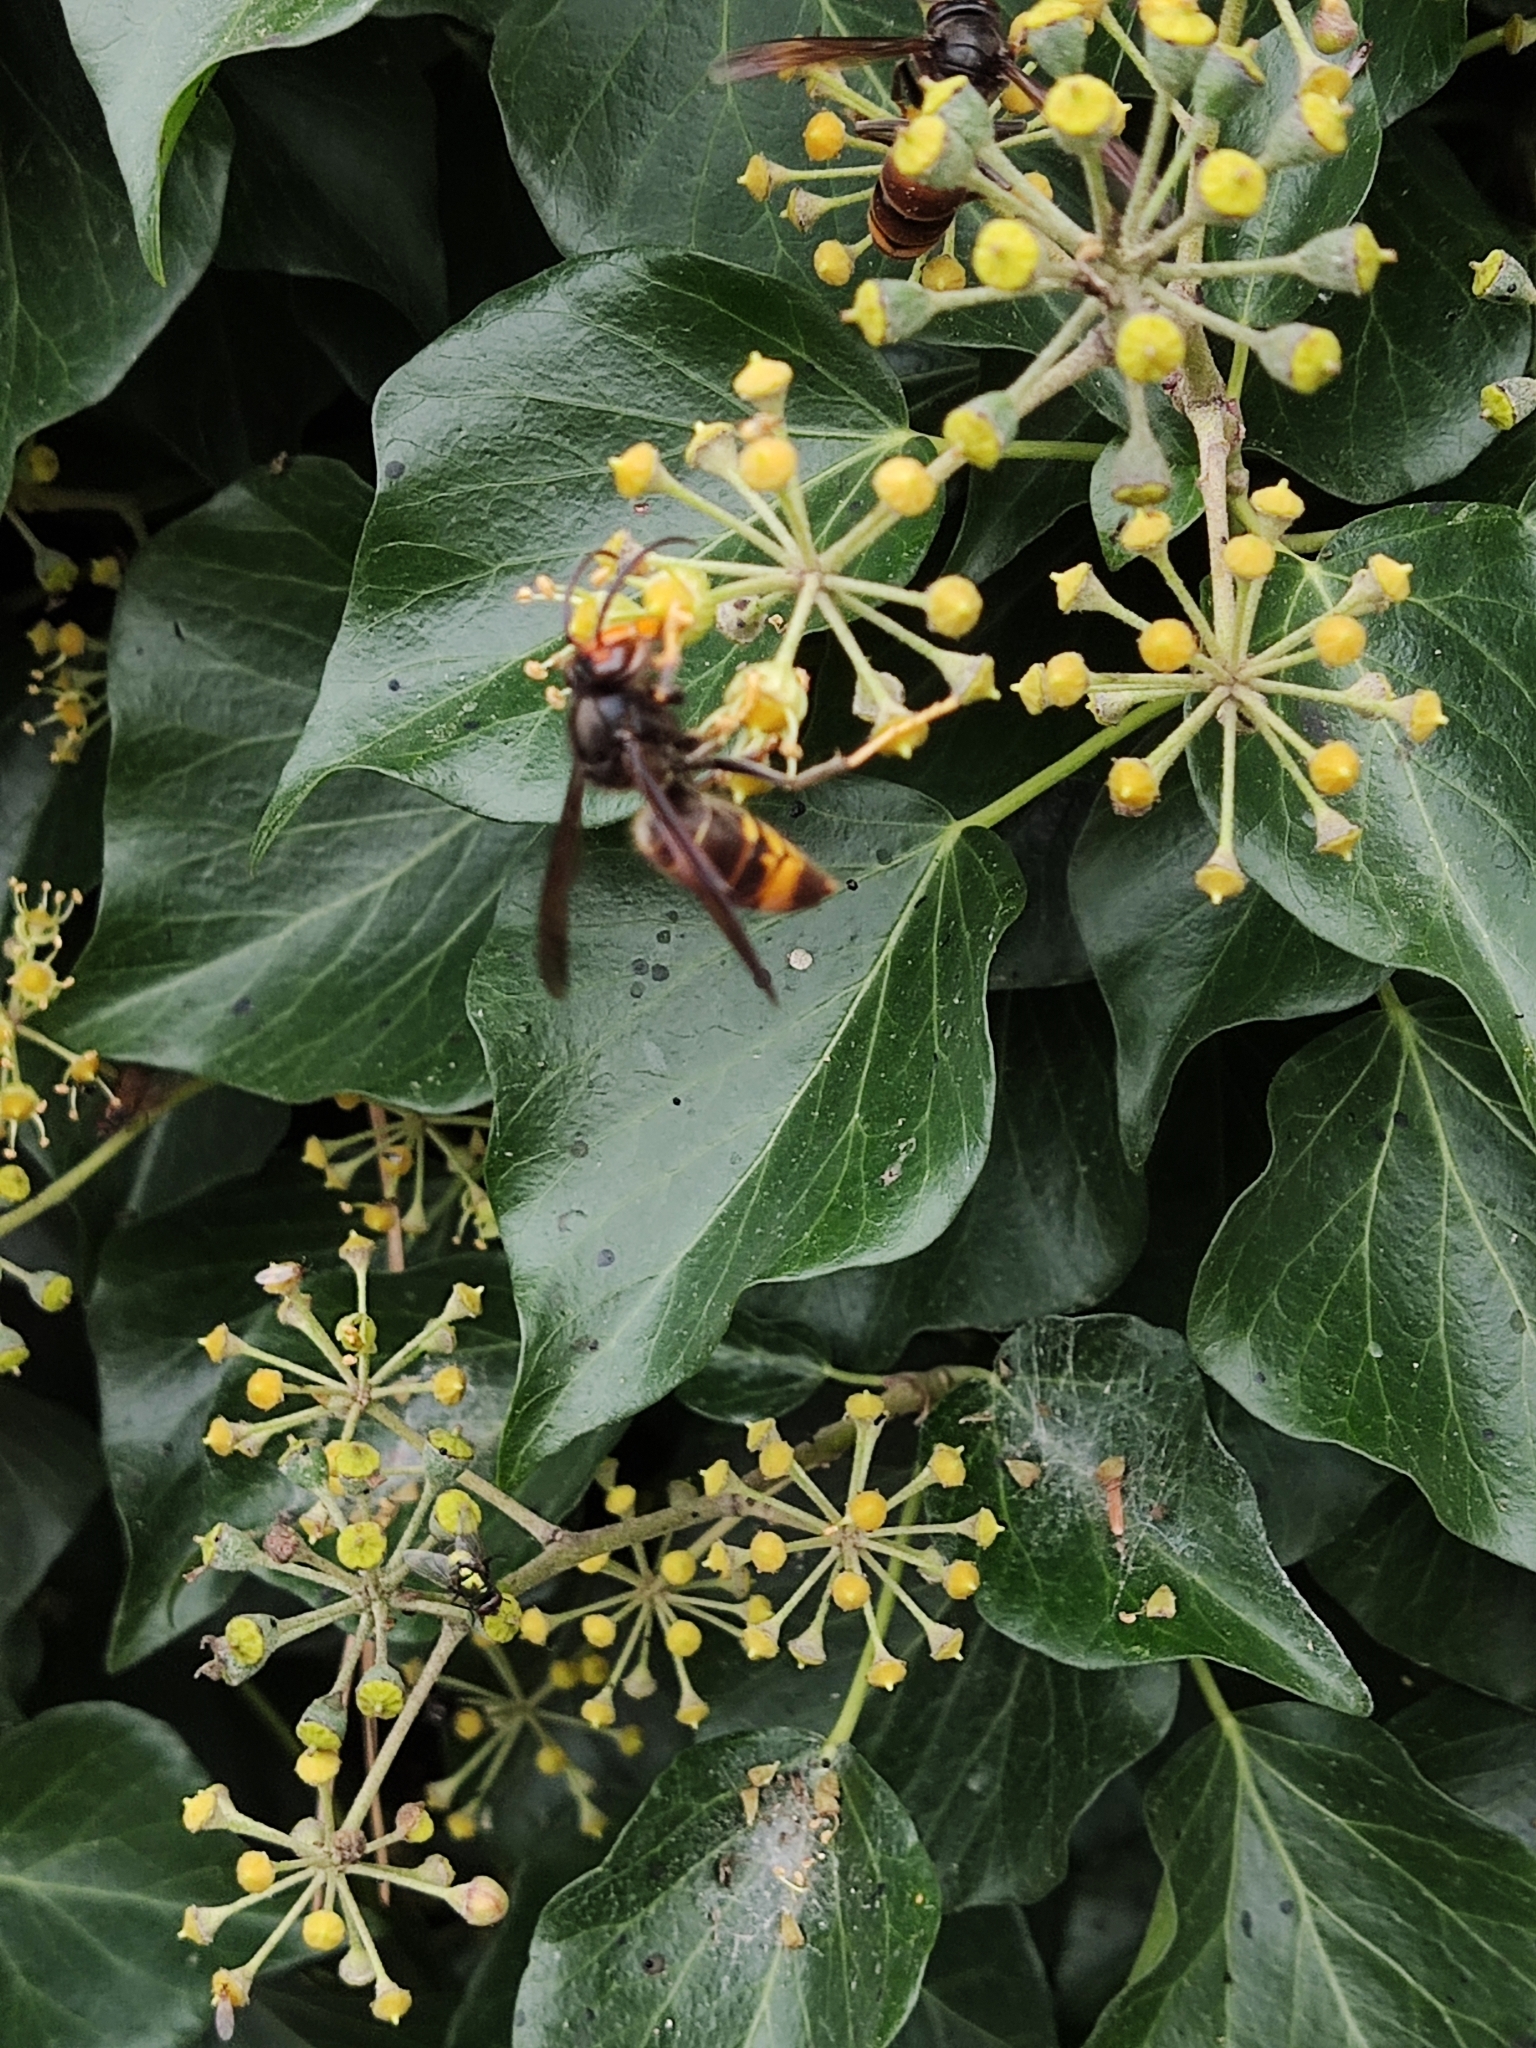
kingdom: Animalia
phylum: Arthropoda
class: Insecta
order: Hymenoptera
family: Vespidae
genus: Vespa
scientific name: Vespa velutina
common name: Asian hornet
